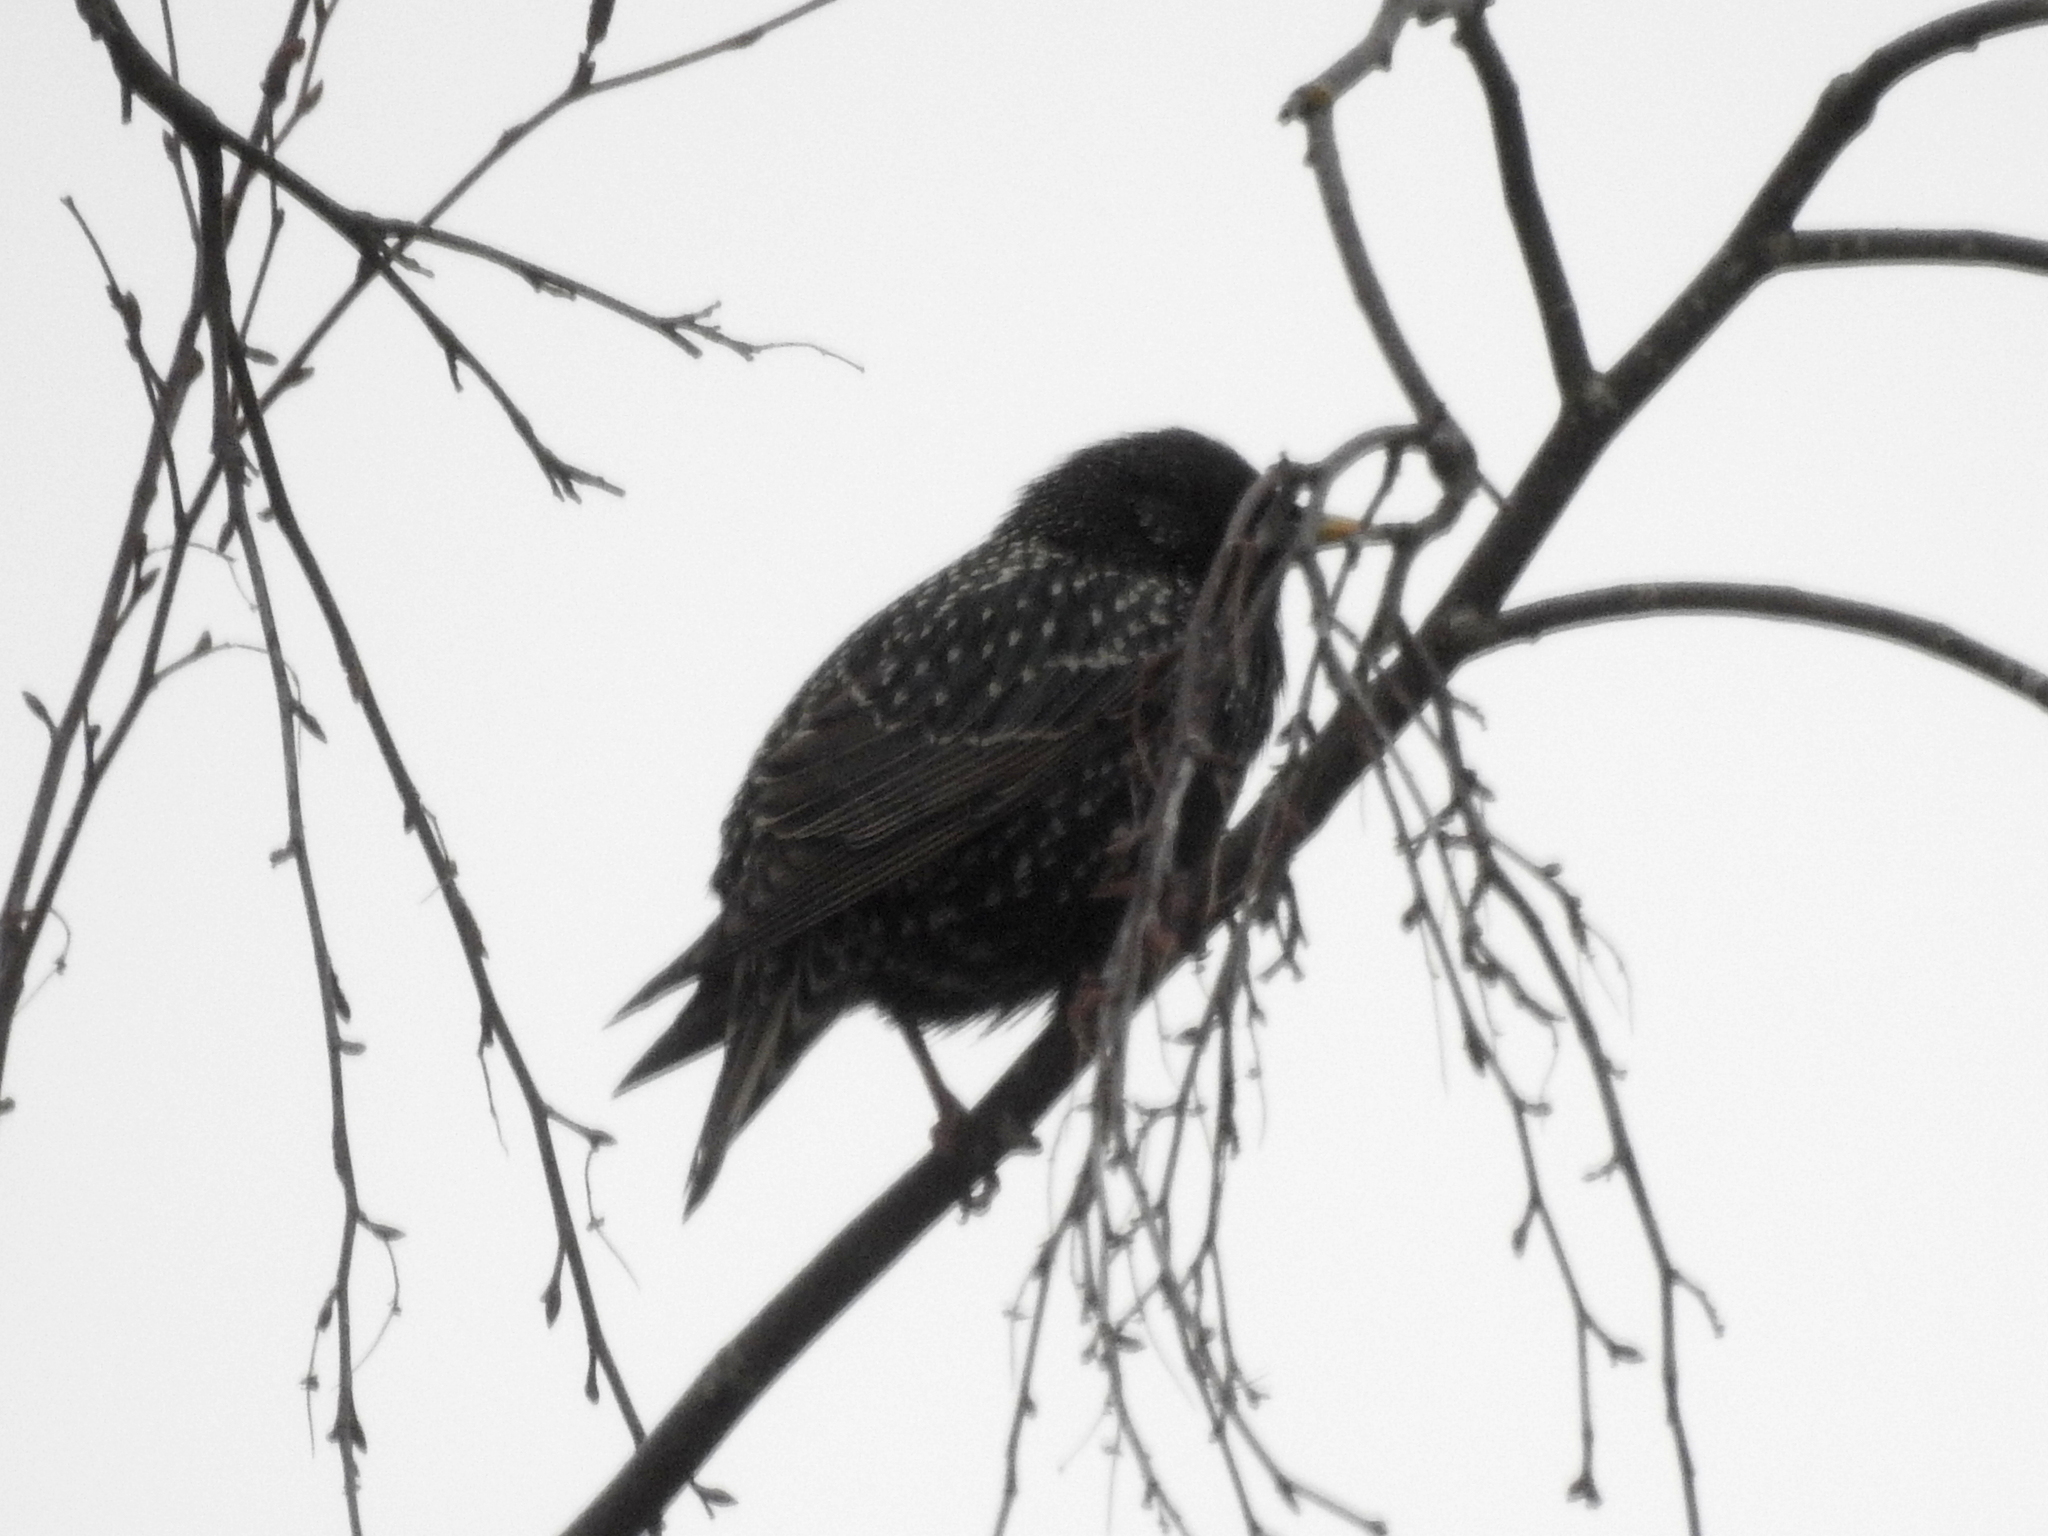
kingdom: Animalia
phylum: Chordata
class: Aves
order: Passeriformes
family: Sturnidae
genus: Sturnus
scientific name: Sturnus vulgaris
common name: Common starling
